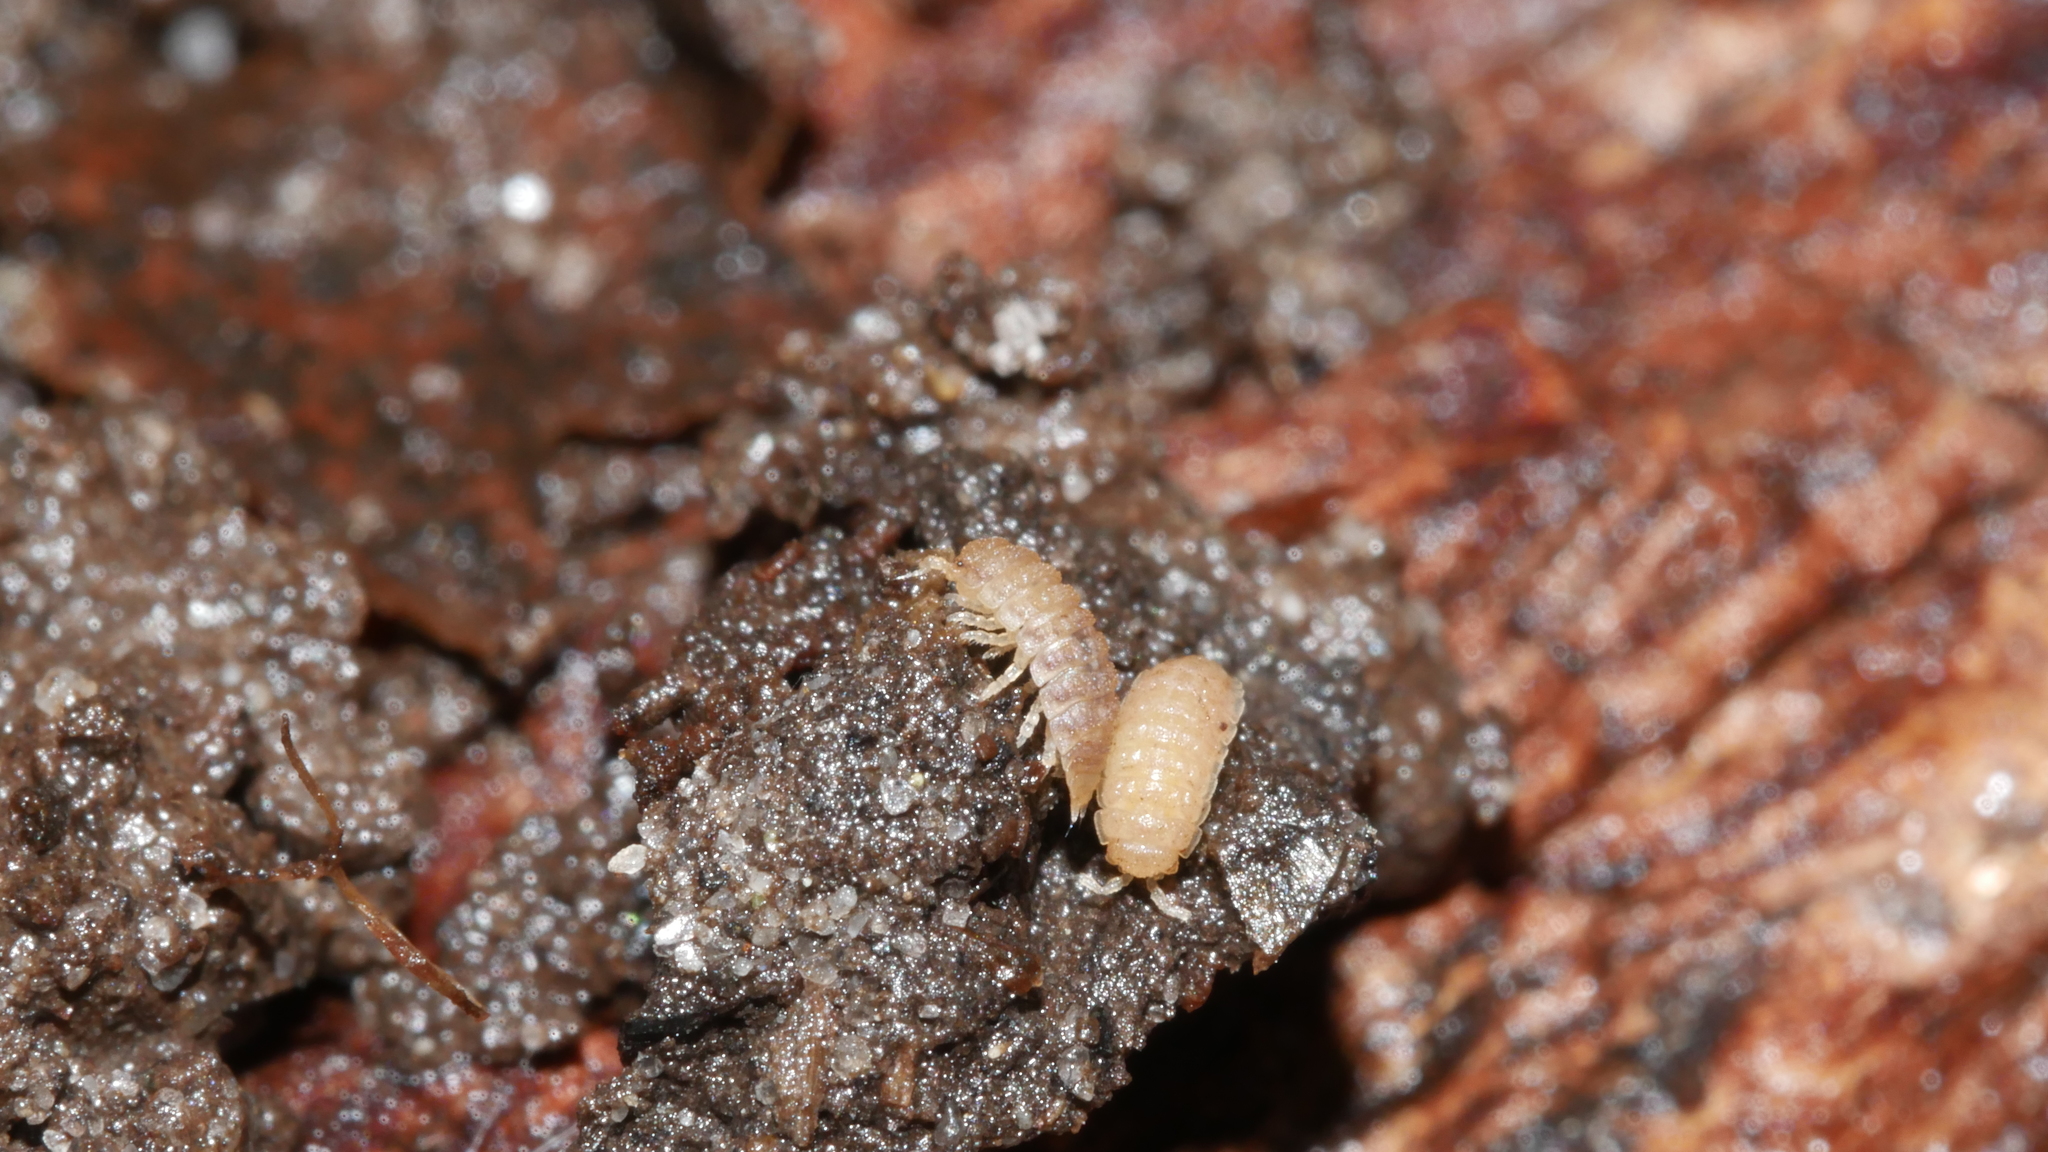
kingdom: Animalia
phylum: Arthropoda
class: Malacostraca
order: Isopoda
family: Trichoniscidae
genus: Haplophthalmus
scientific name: Haplophthalmus danicus
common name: Pillbug
